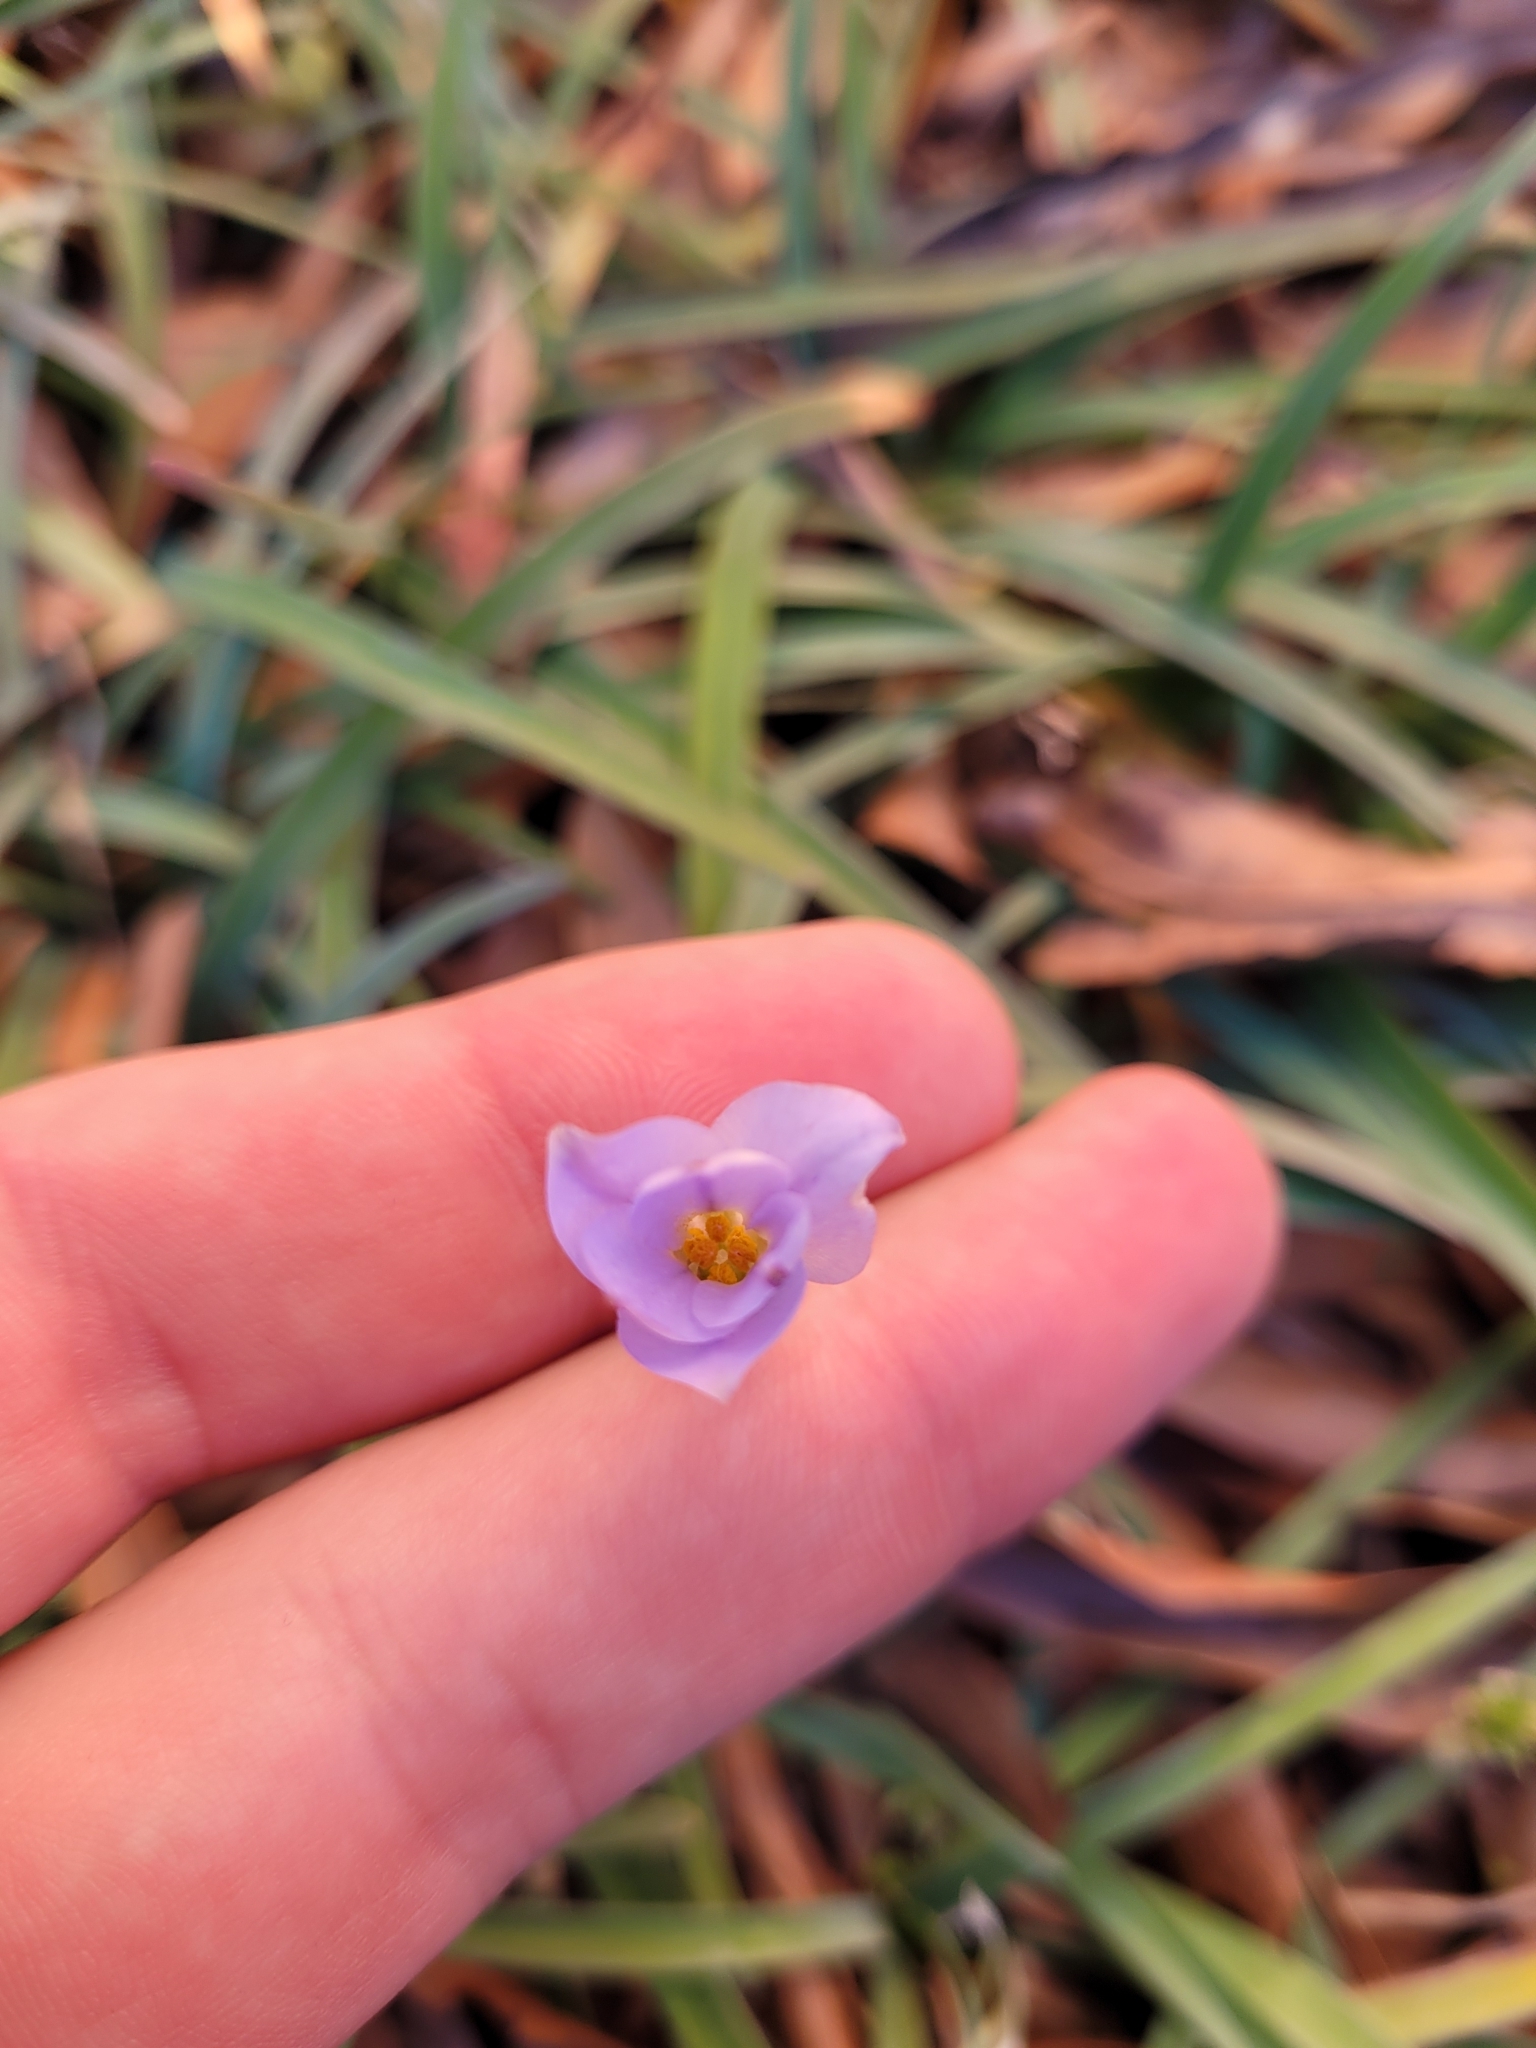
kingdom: Plantae
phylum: Tracheophyta
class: Liliopsida
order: Asparagales
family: Amaryllidaceae
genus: Ipheion
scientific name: Ipheion uniflorum
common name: Spring starflower
